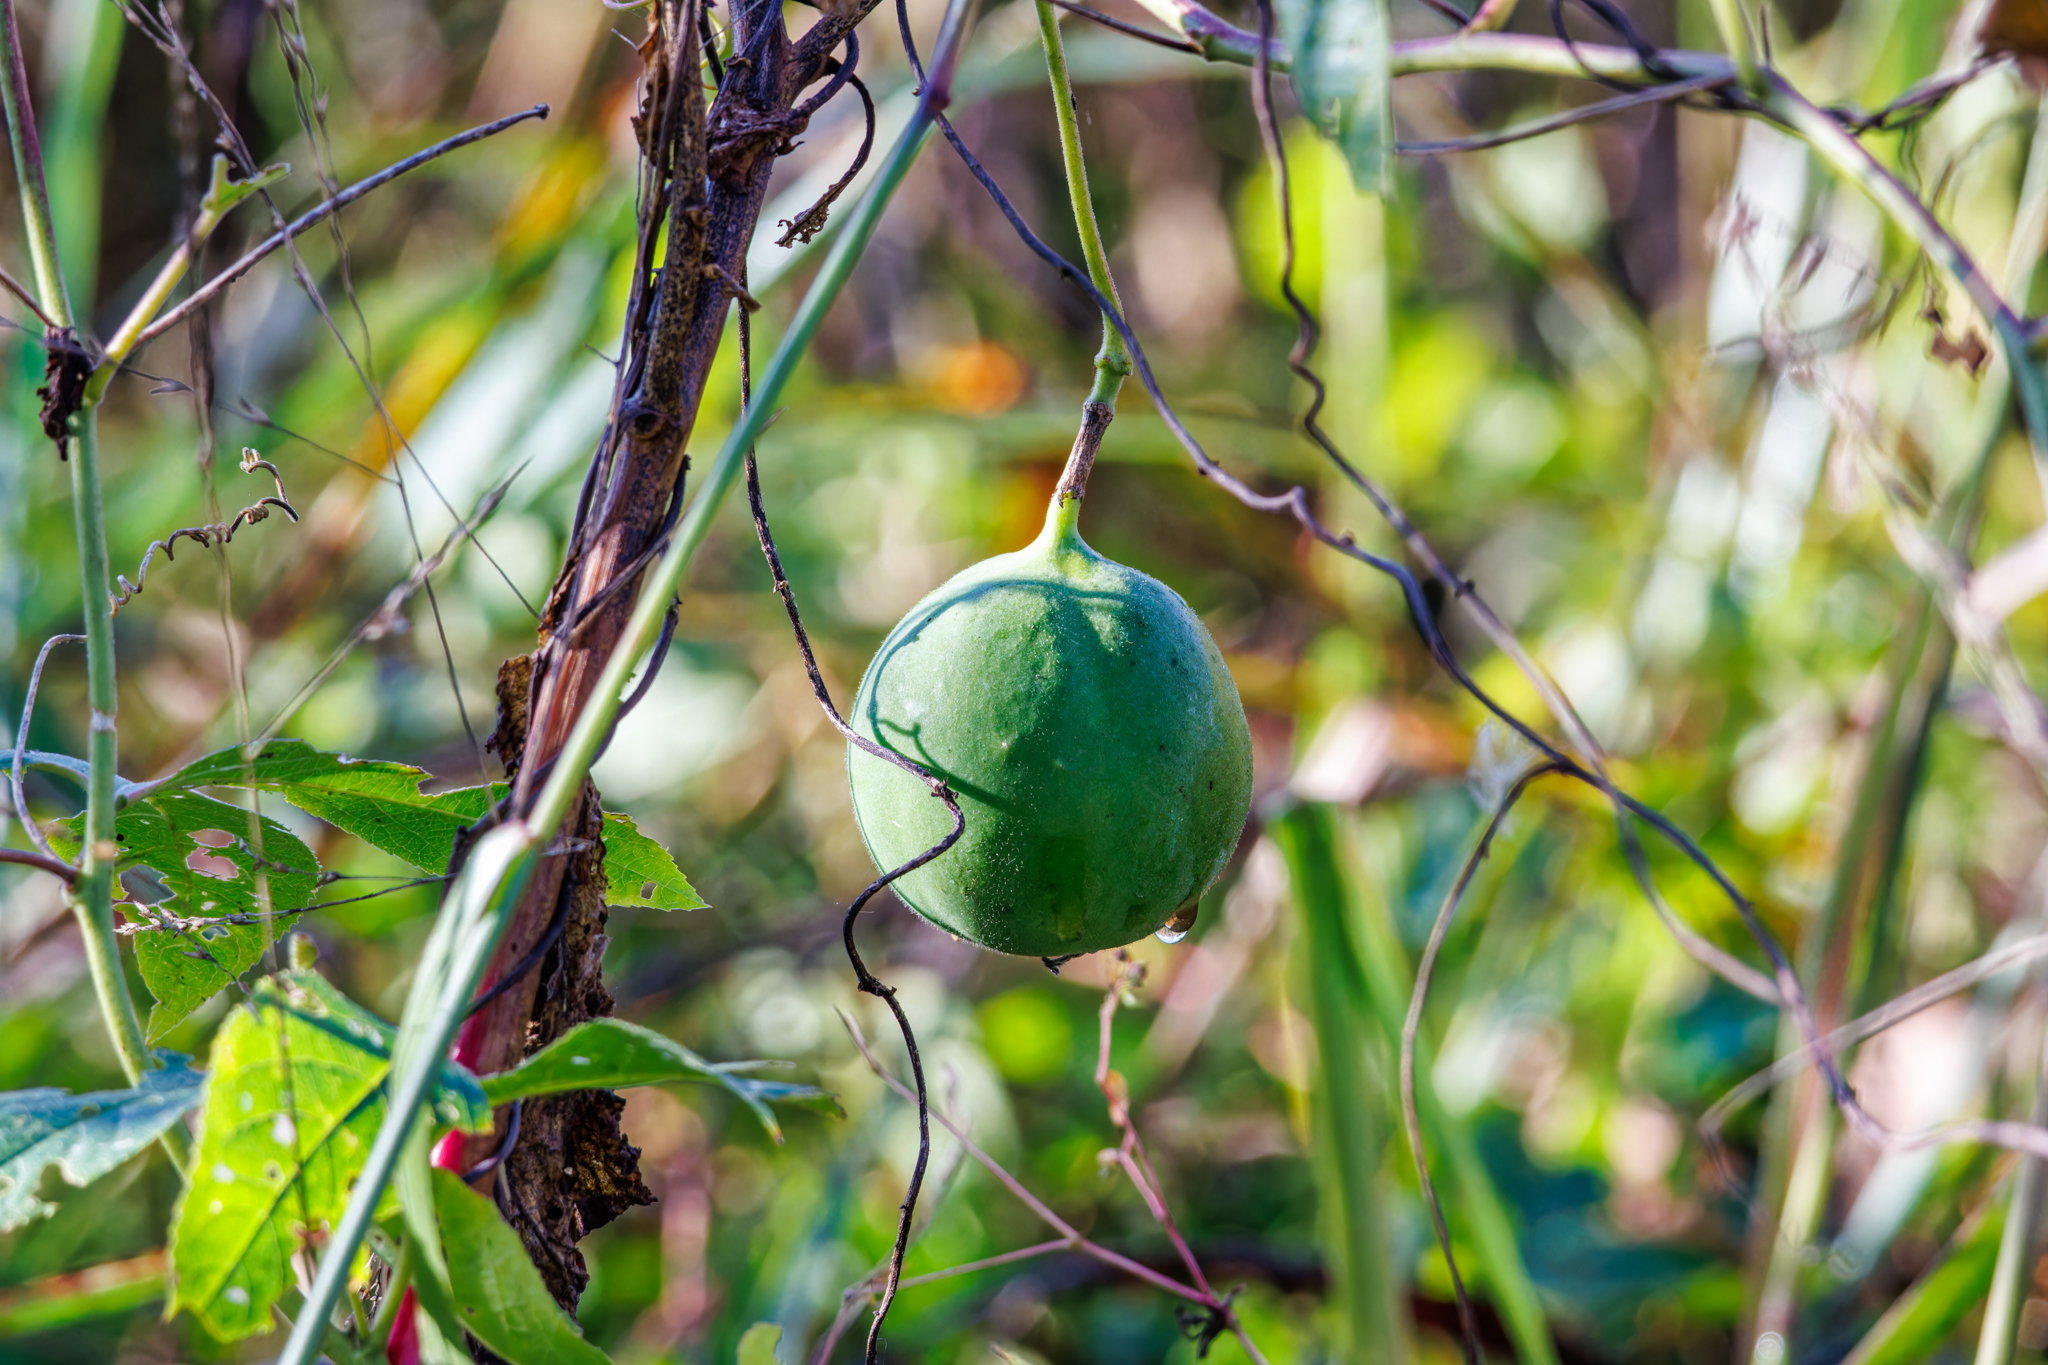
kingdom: Plantae
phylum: Tracheophyta
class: Magnoliopsida
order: Malpighiales
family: Passifloraceae
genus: Passiflora
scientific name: Passiflora incarnata
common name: Apricot-vine
